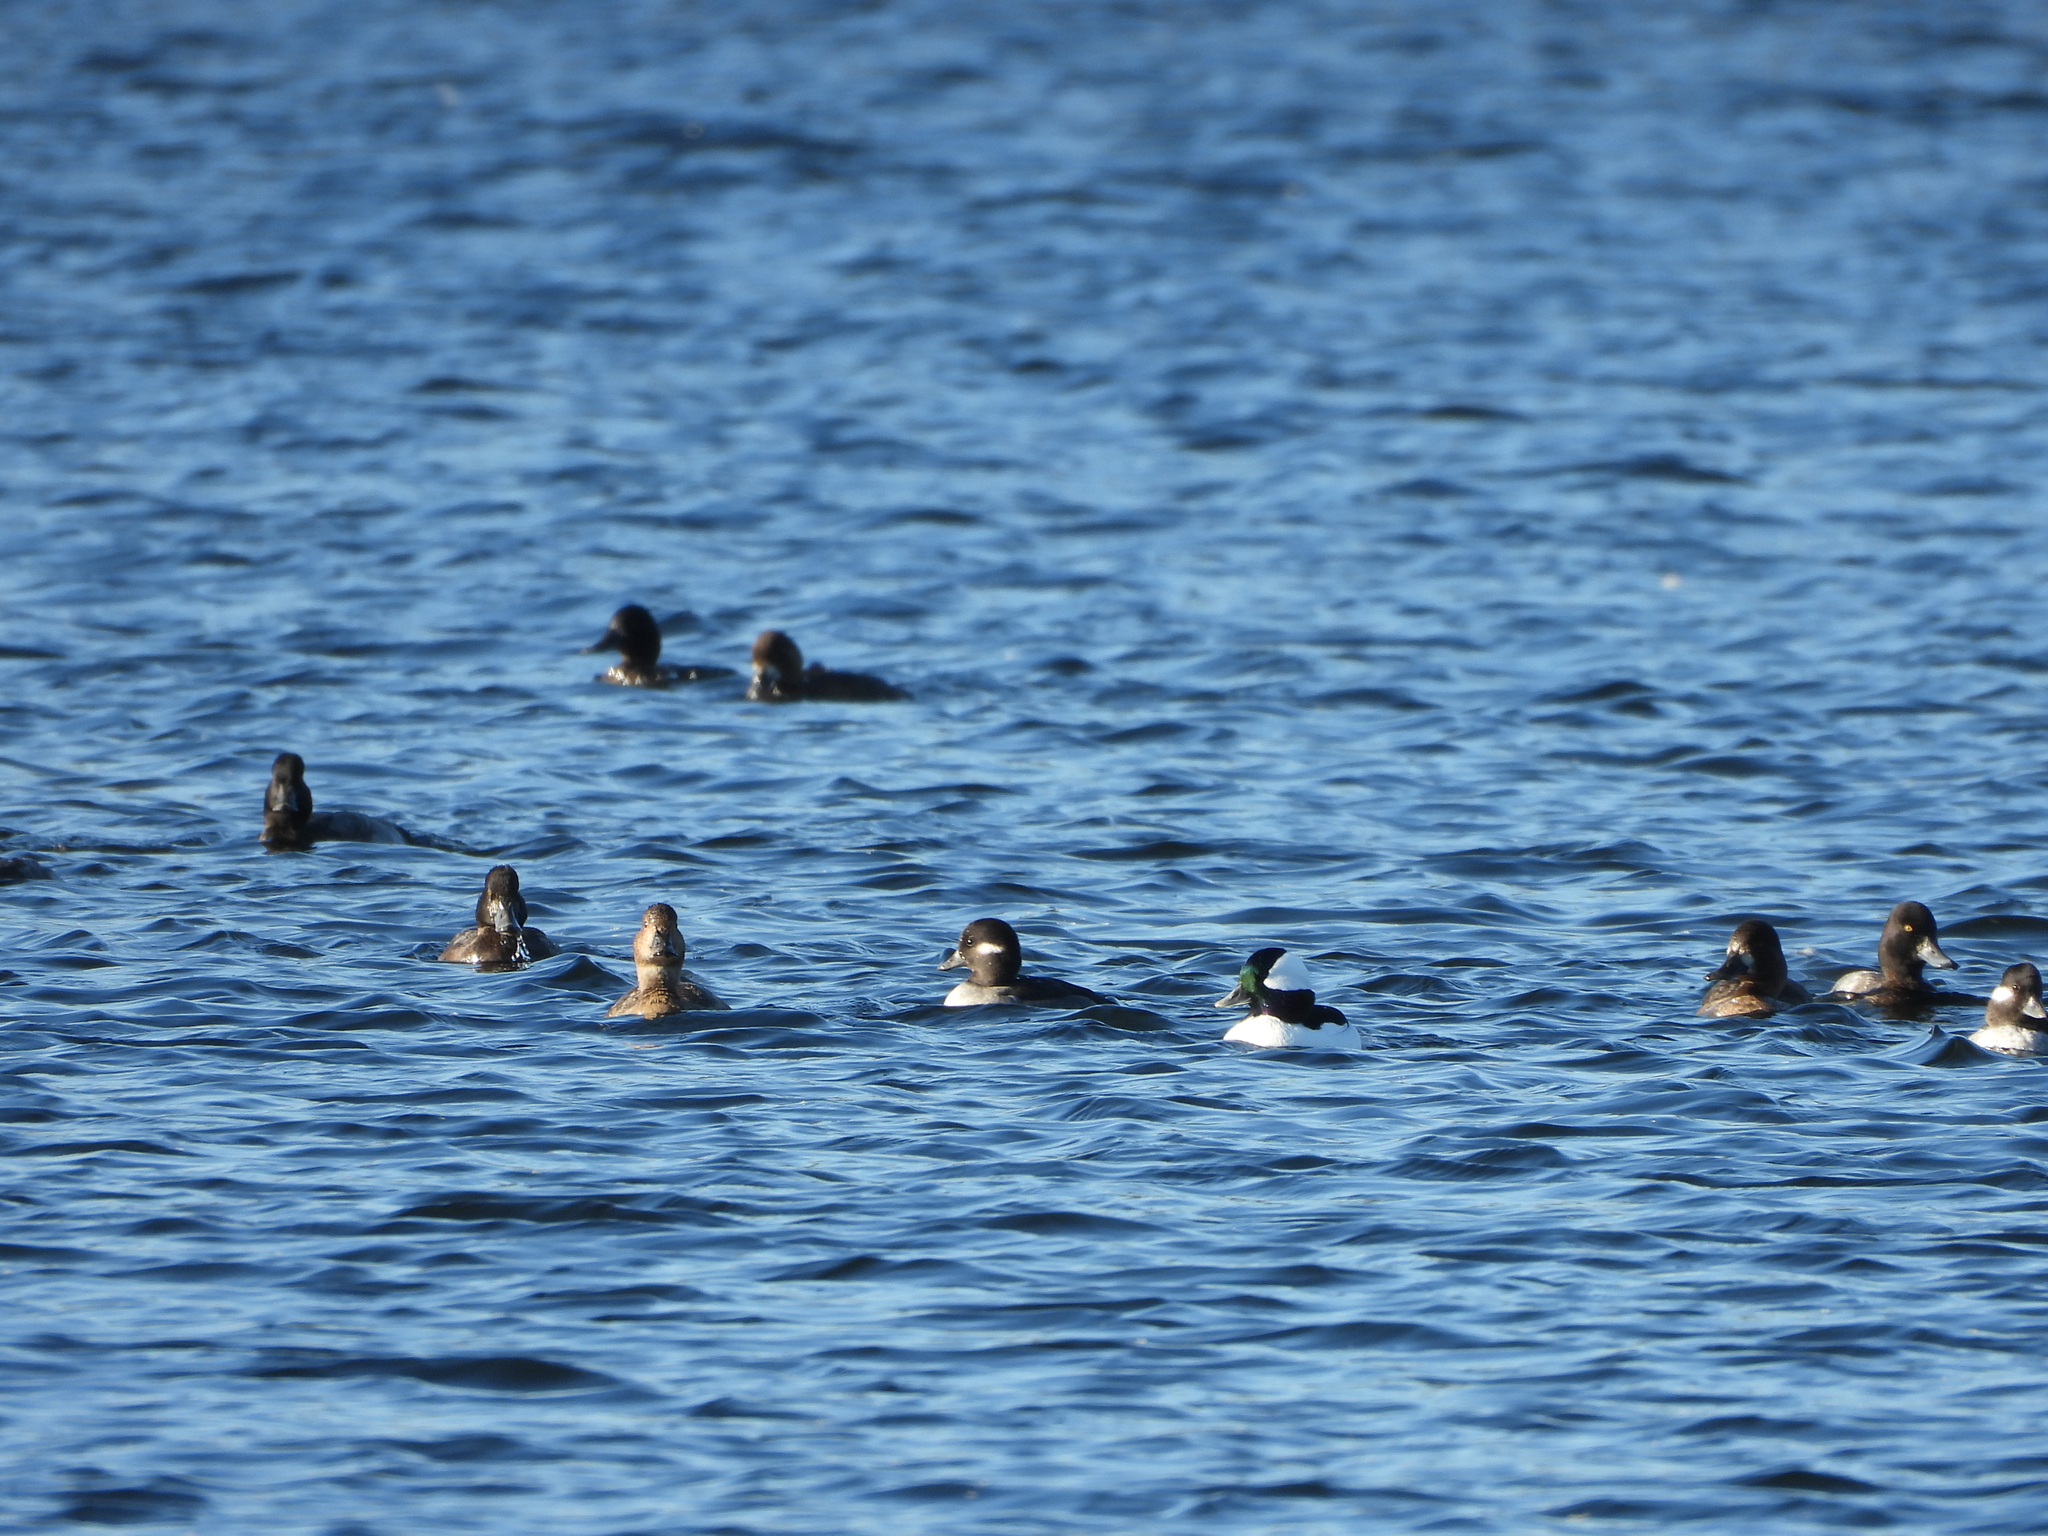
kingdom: Animalia
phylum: Chordata
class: Aves
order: Anseriformes
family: Anatidae
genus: Bucephala
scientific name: Bucephala albeola
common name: Bufflehead
